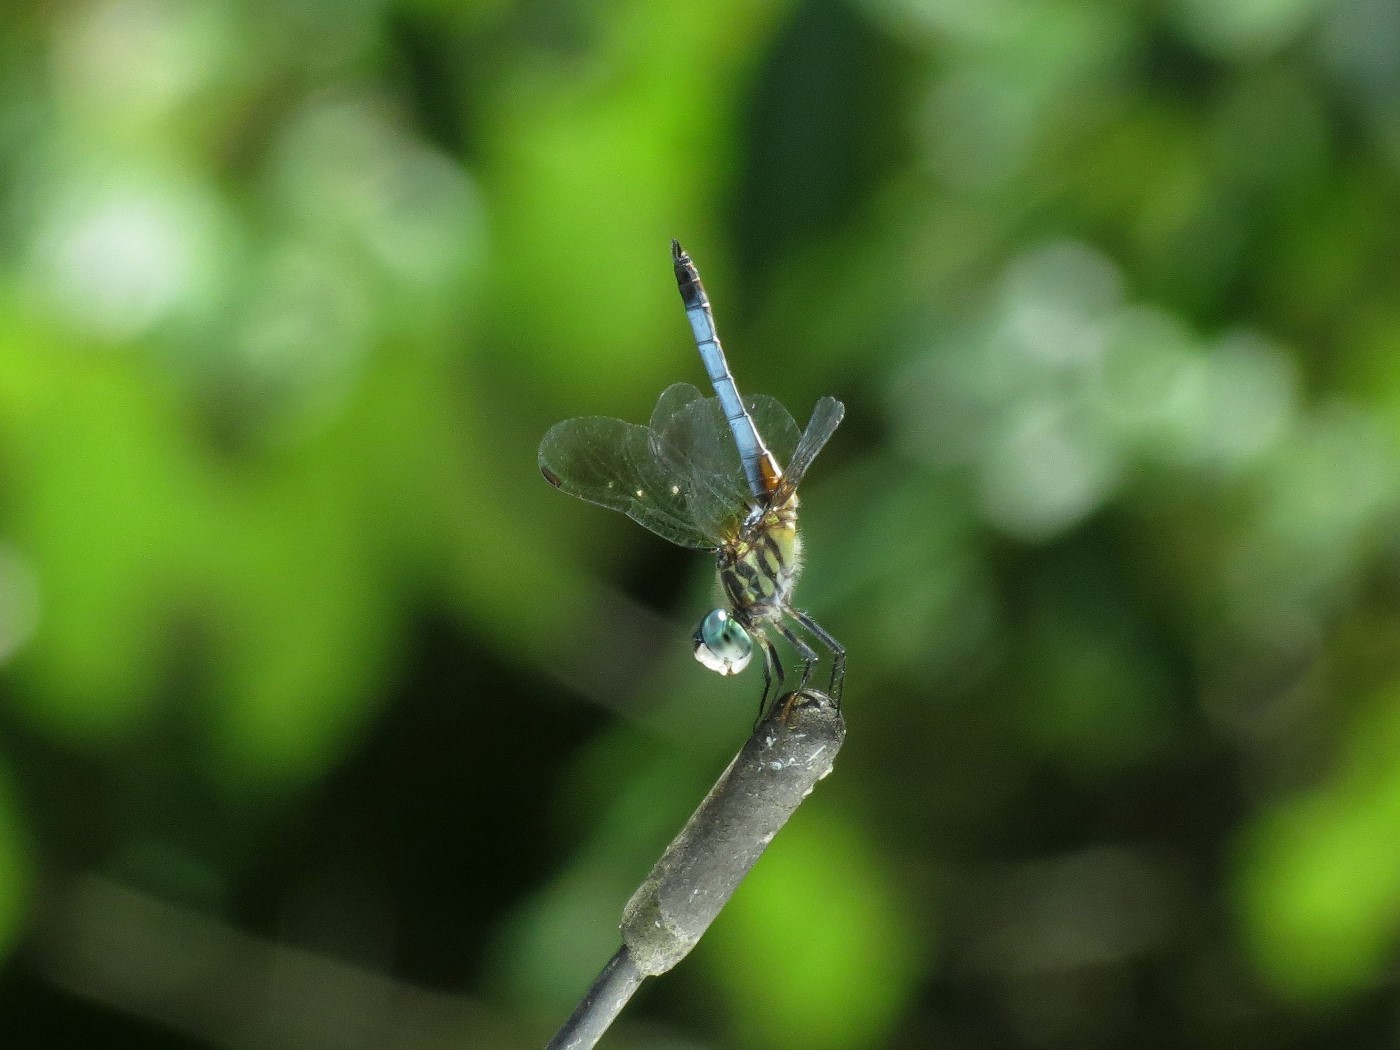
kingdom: Animalia
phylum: Arthropoda
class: Insecta
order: Odonata
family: Libellulidae
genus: Pachydiplax
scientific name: Pachydiplax longipennis
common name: Blue dasher
